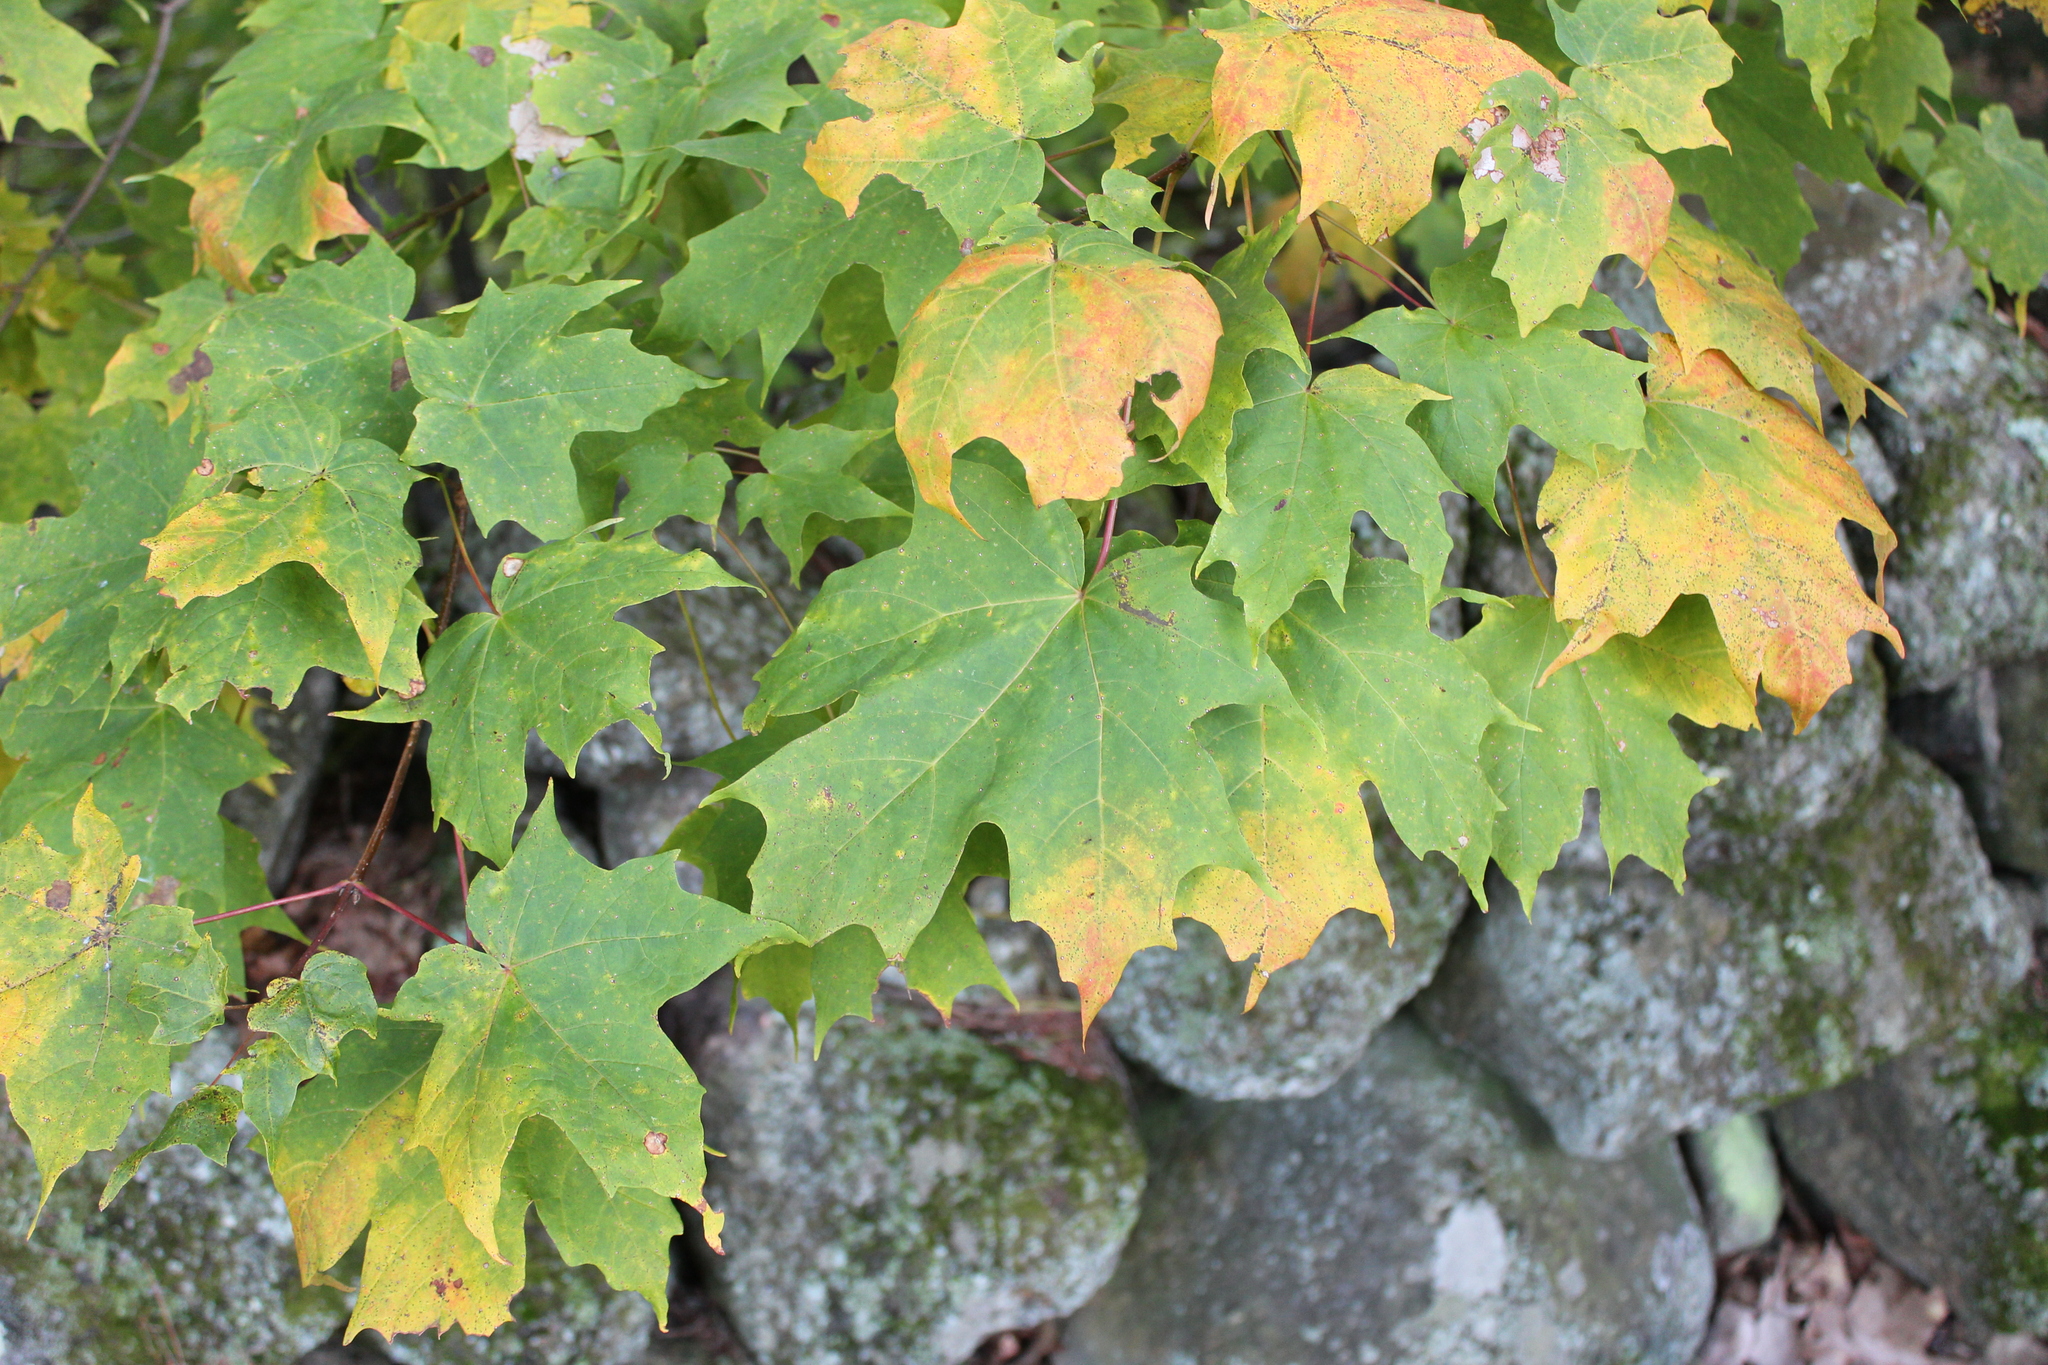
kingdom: Plantae
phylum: Tracheophyta
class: Magnoliopsida
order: Sapindales
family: Sapindaceae
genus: Acer
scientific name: Acer saccharum
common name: Sugar maple
